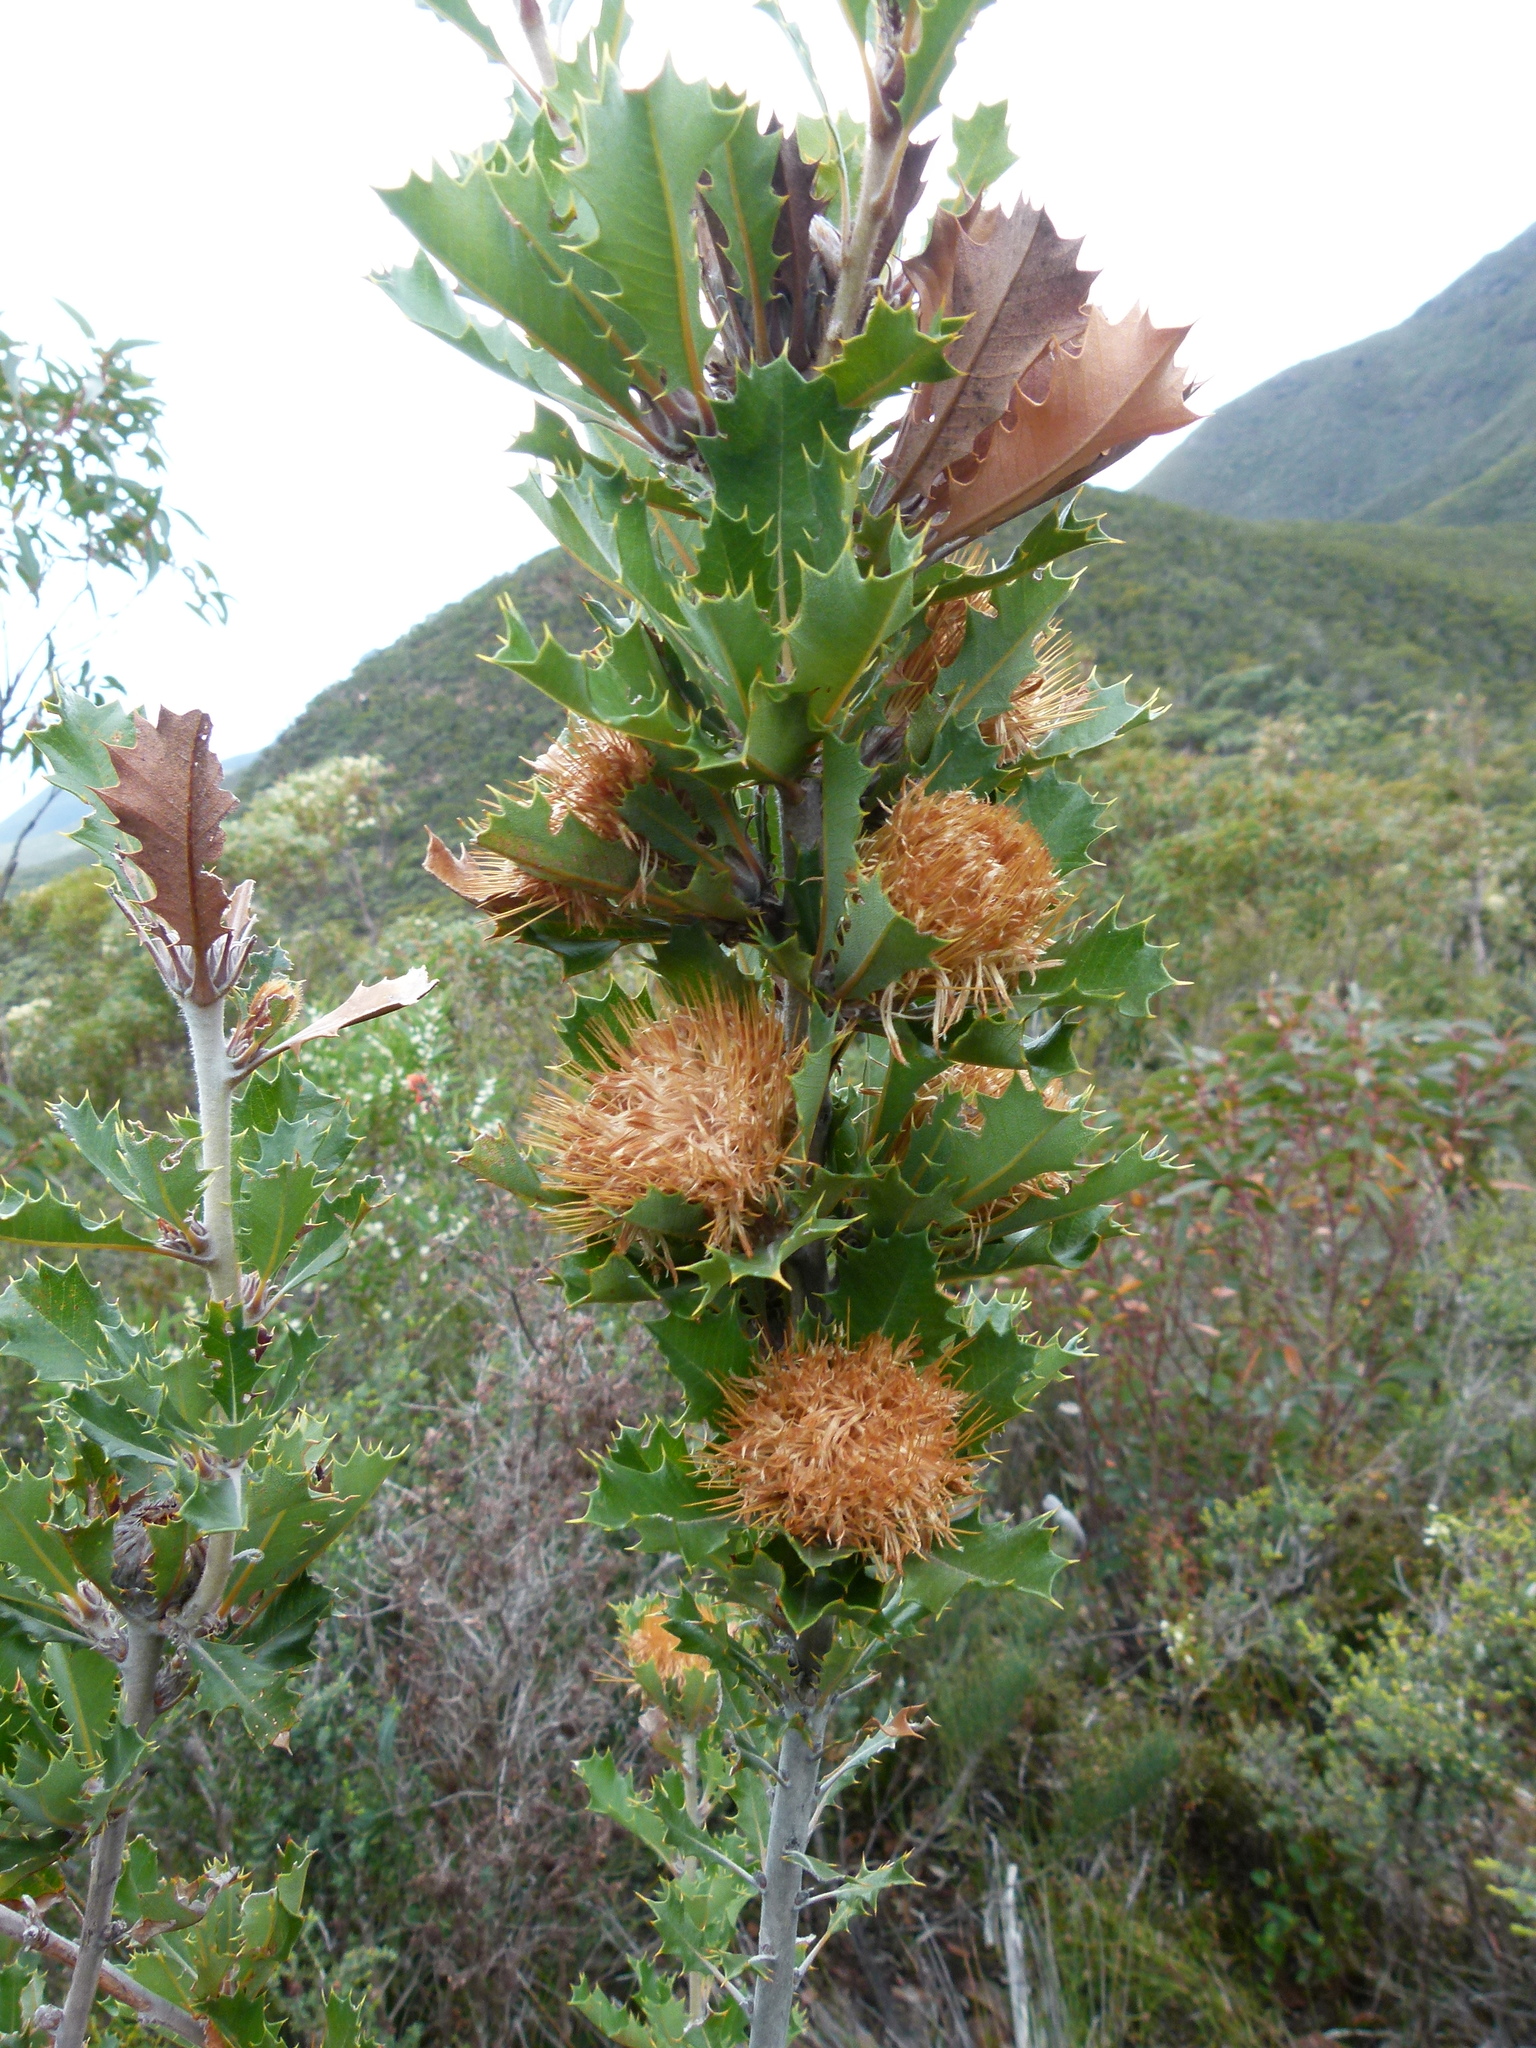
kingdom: Plantae
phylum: Tracheophyta
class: Magnoliopsida
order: Proteales
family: Proteaceae
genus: Banksia
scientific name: Banksia sessilis
